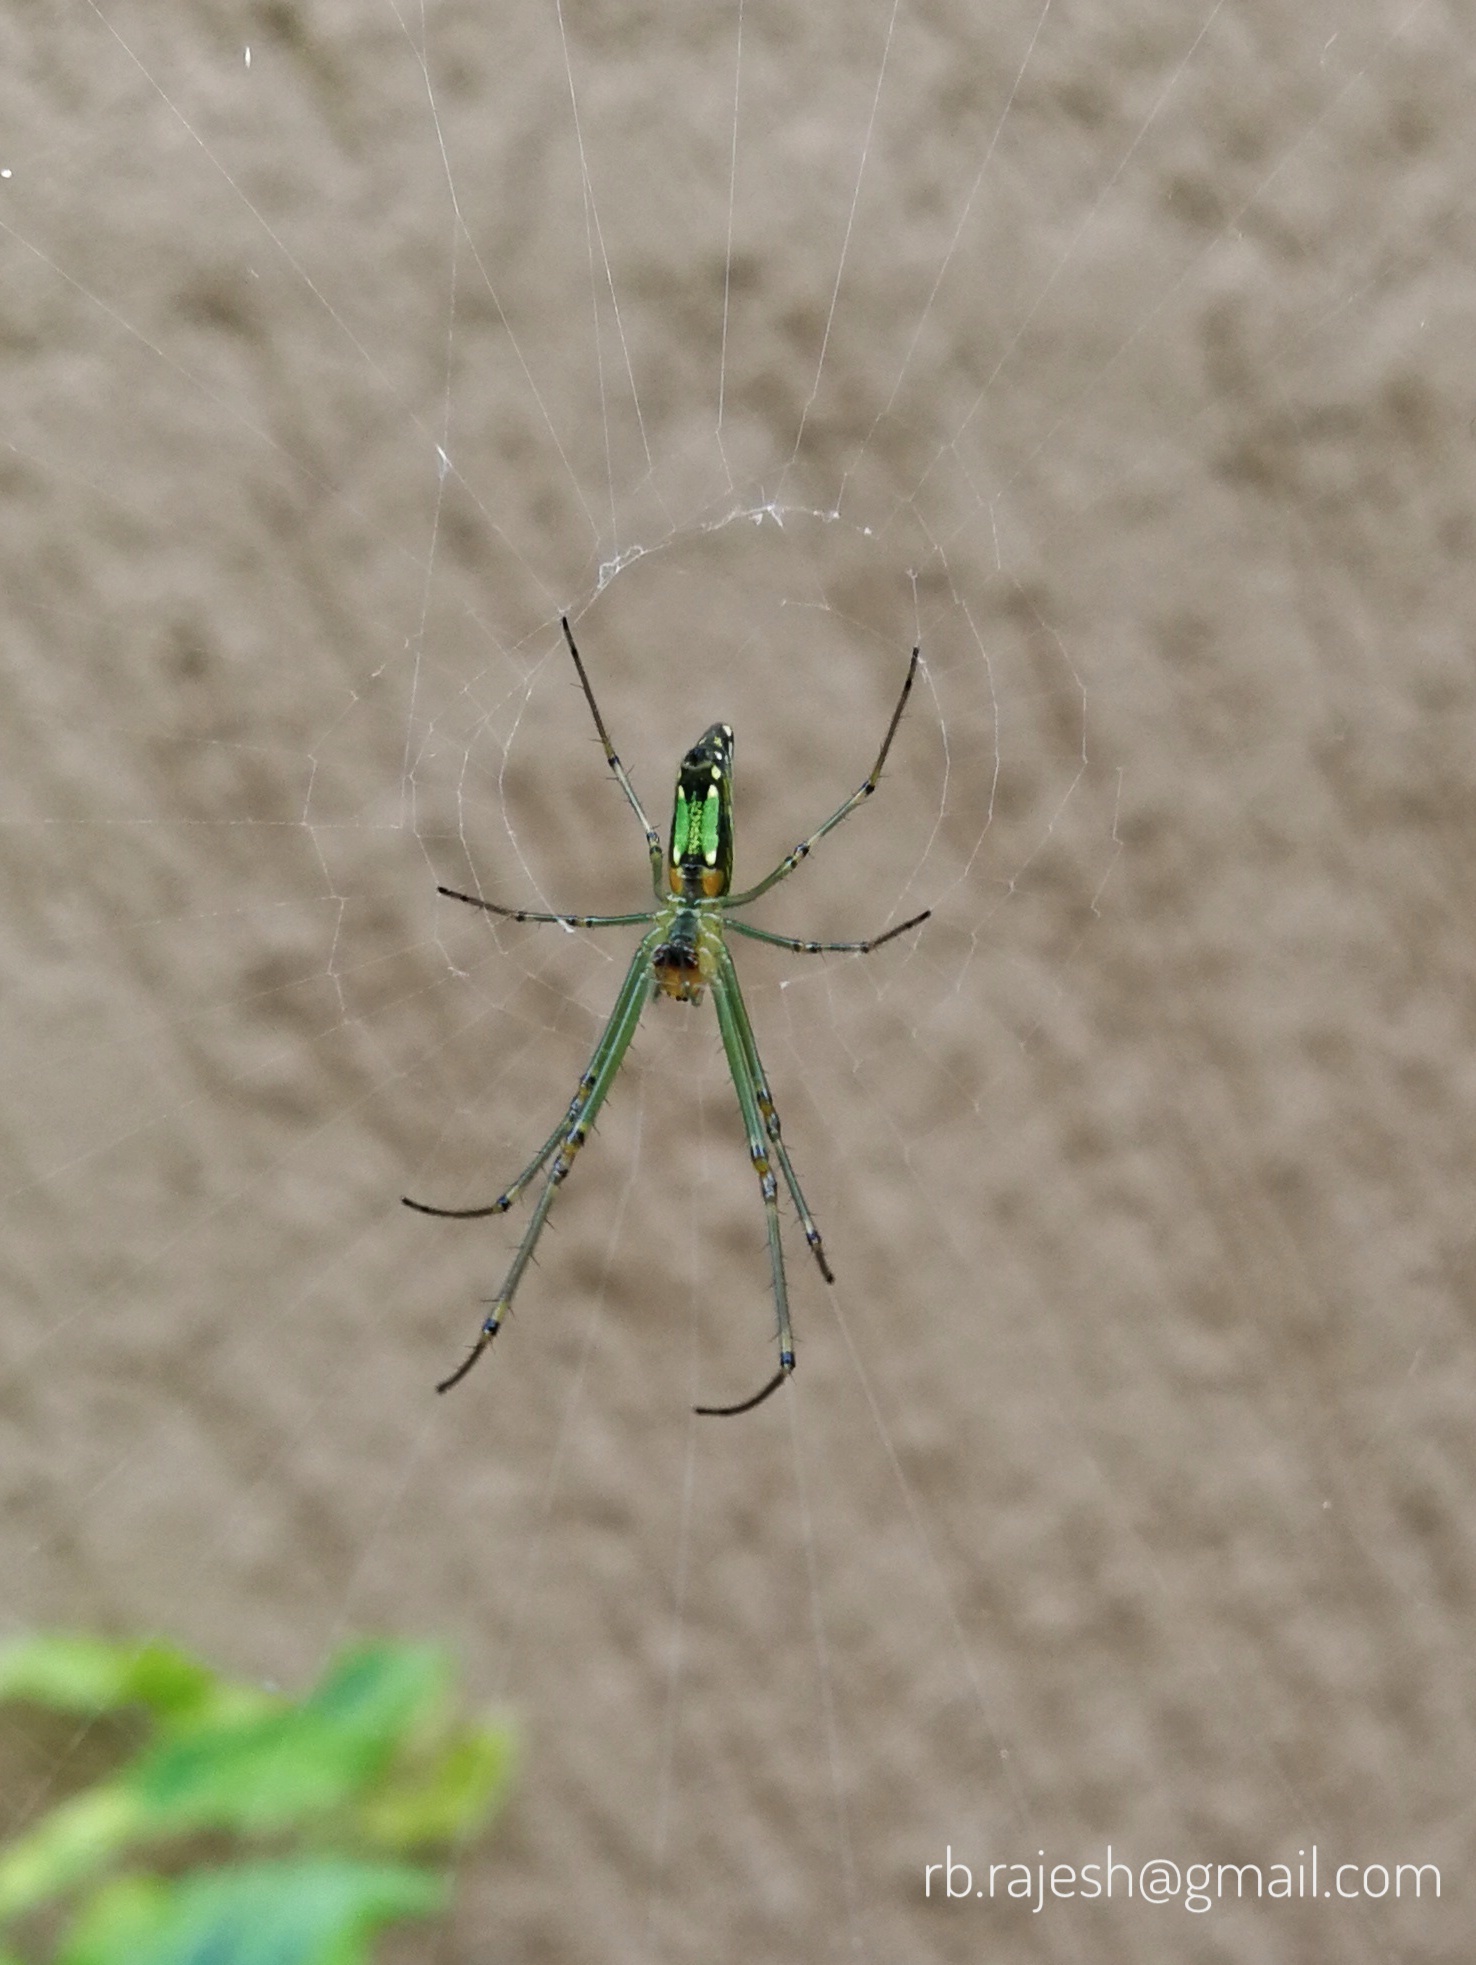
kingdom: Animalia
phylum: Arthropoda
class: Arachnida
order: Araneae
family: Tetragnathidae
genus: Leucauge
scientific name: Leucauge decorata
